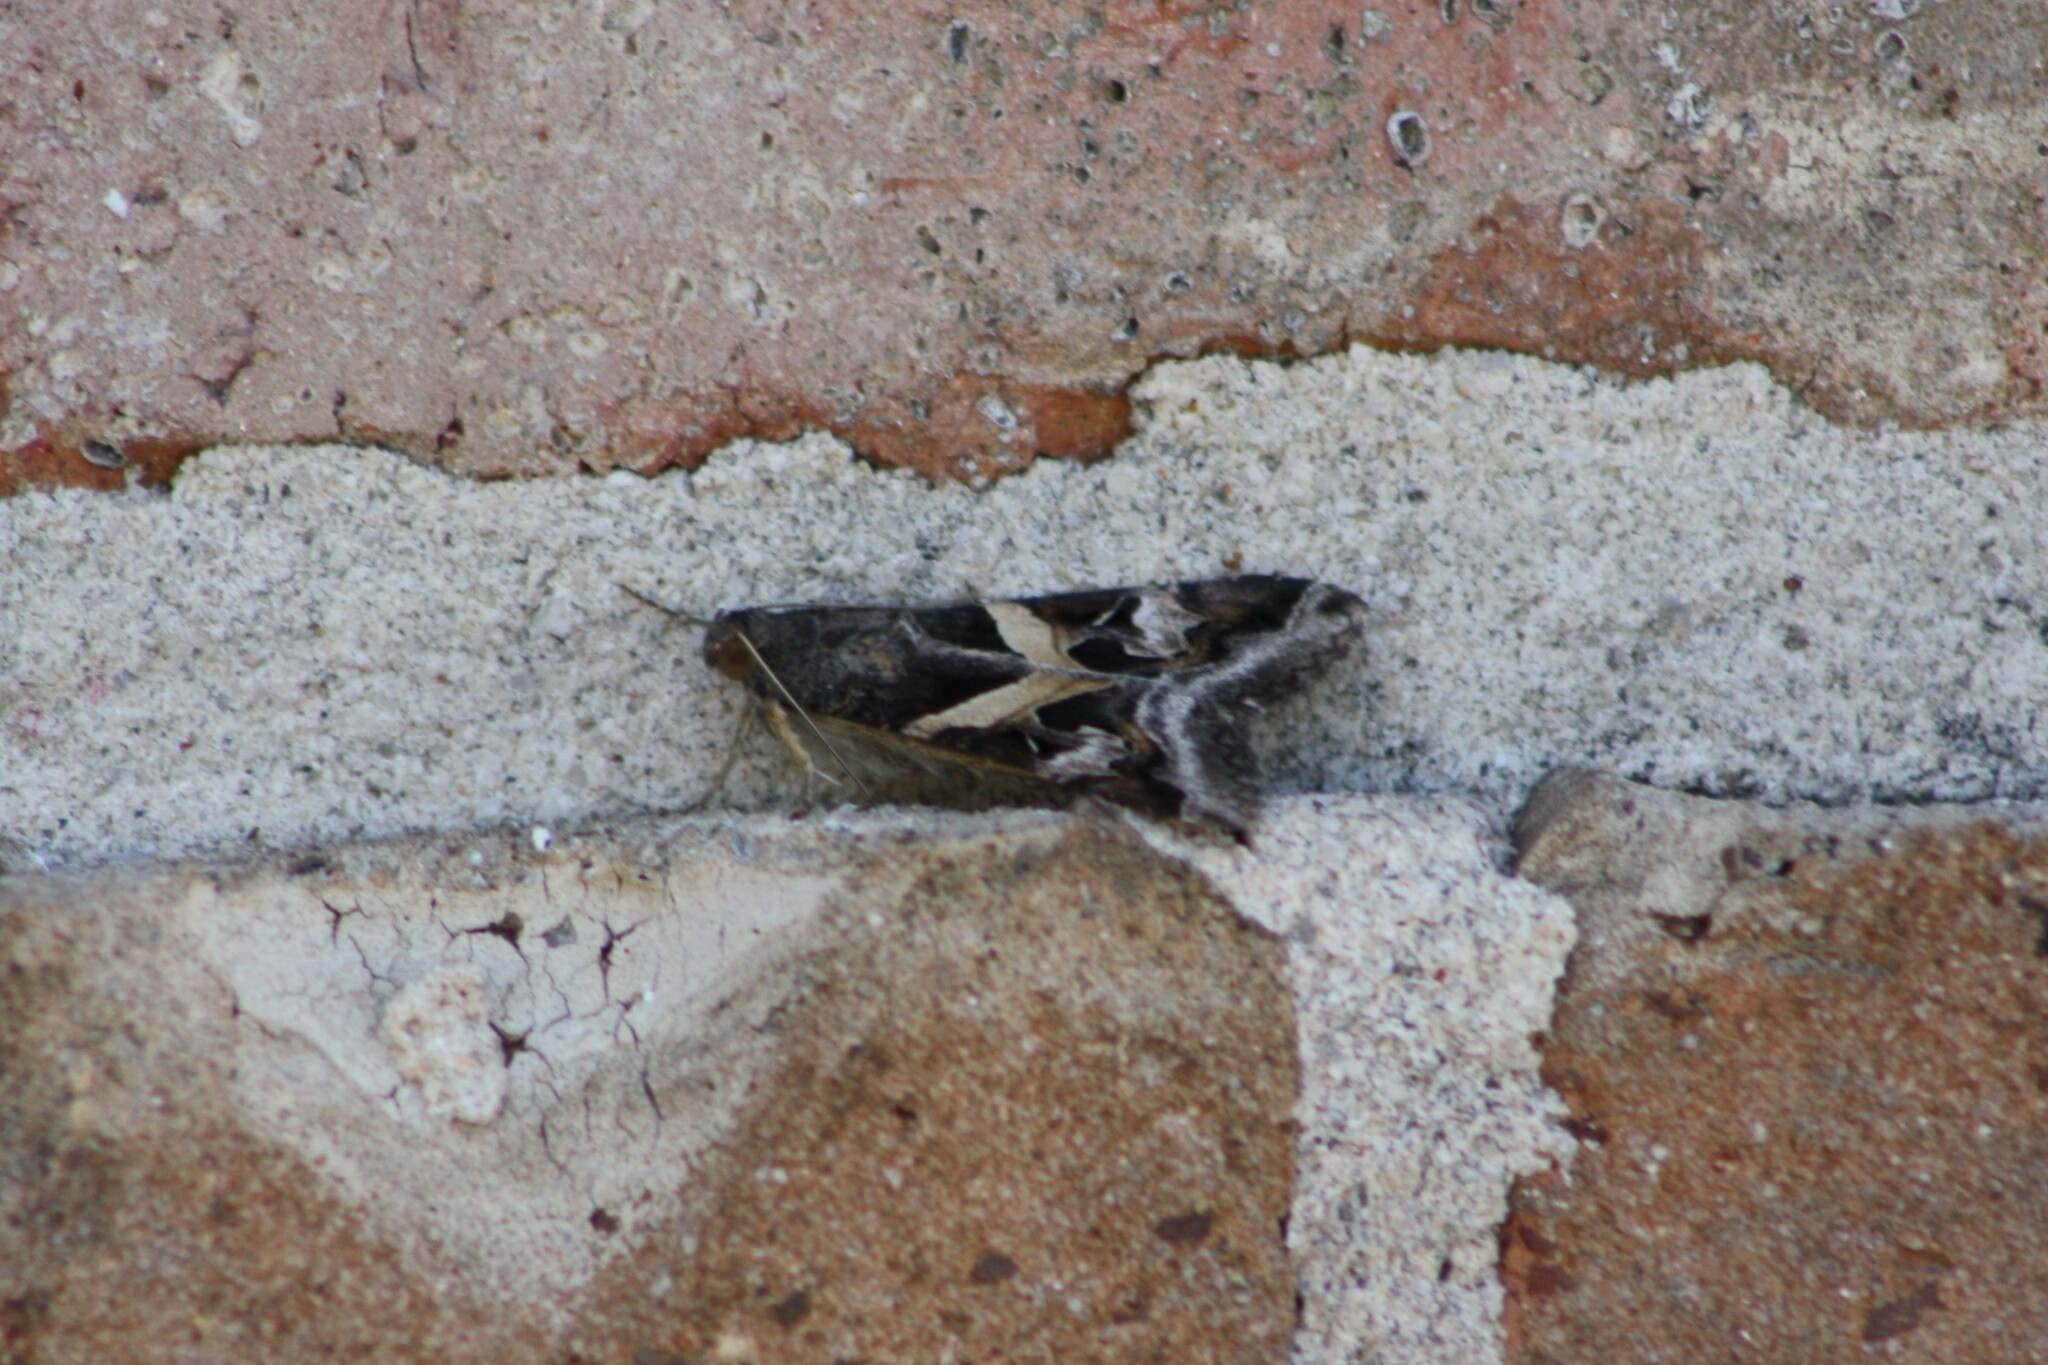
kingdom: Animalia
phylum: Arthropoda
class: Insecta
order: Lepidoptera
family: Erebidae
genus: Melipotis
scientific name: Melipotis indomita
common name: Moth
